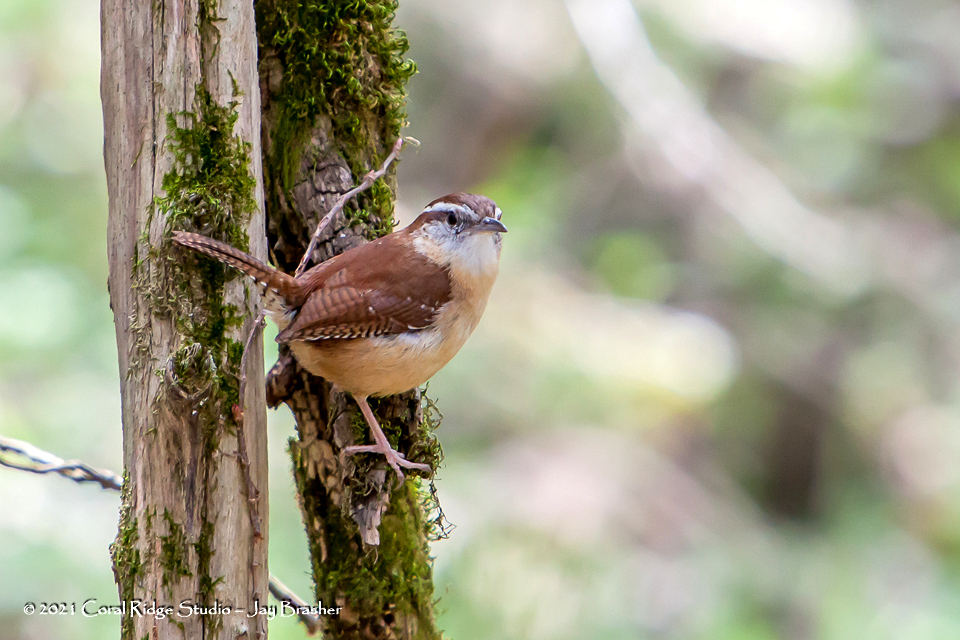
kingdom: Animalia
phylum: Chordata
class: Aves
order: Passeriformes
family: Troglodytidae
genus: Thryothorus
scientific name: Thryothorus ludovicianus
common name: Carolina wren
